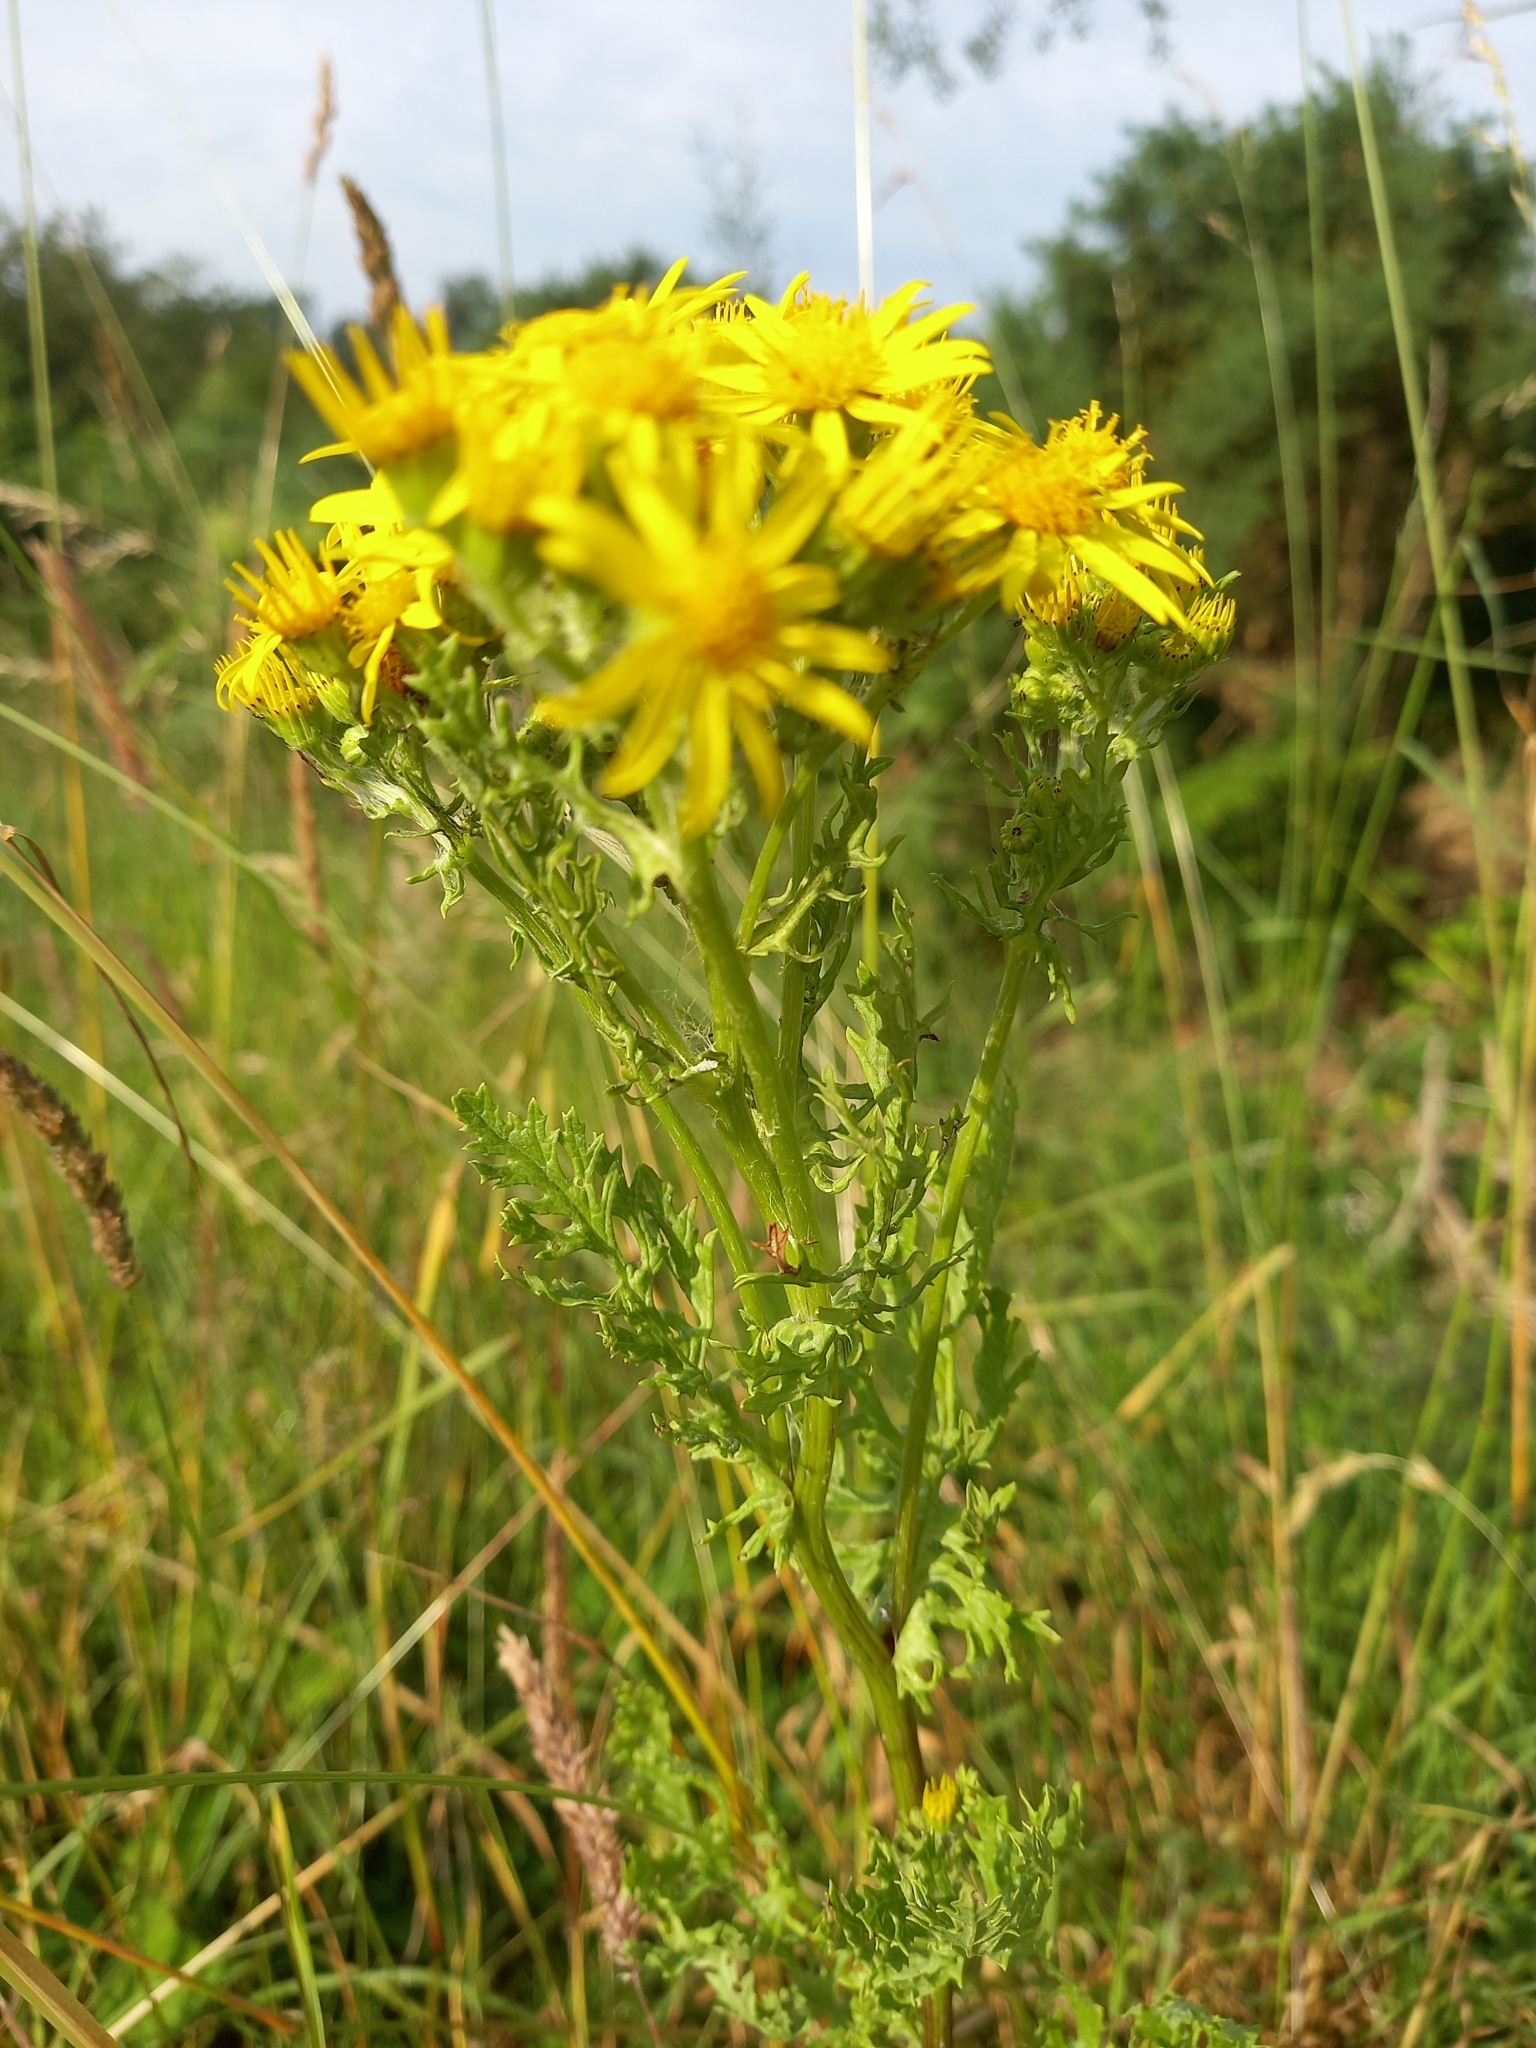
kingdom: Plantae
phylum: Tracheophyta
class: Magnoliopsida
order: Asterales
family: Asteraceae
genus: Jacobaea
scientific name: Jacobaea vulgaris
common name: Stinking willie
